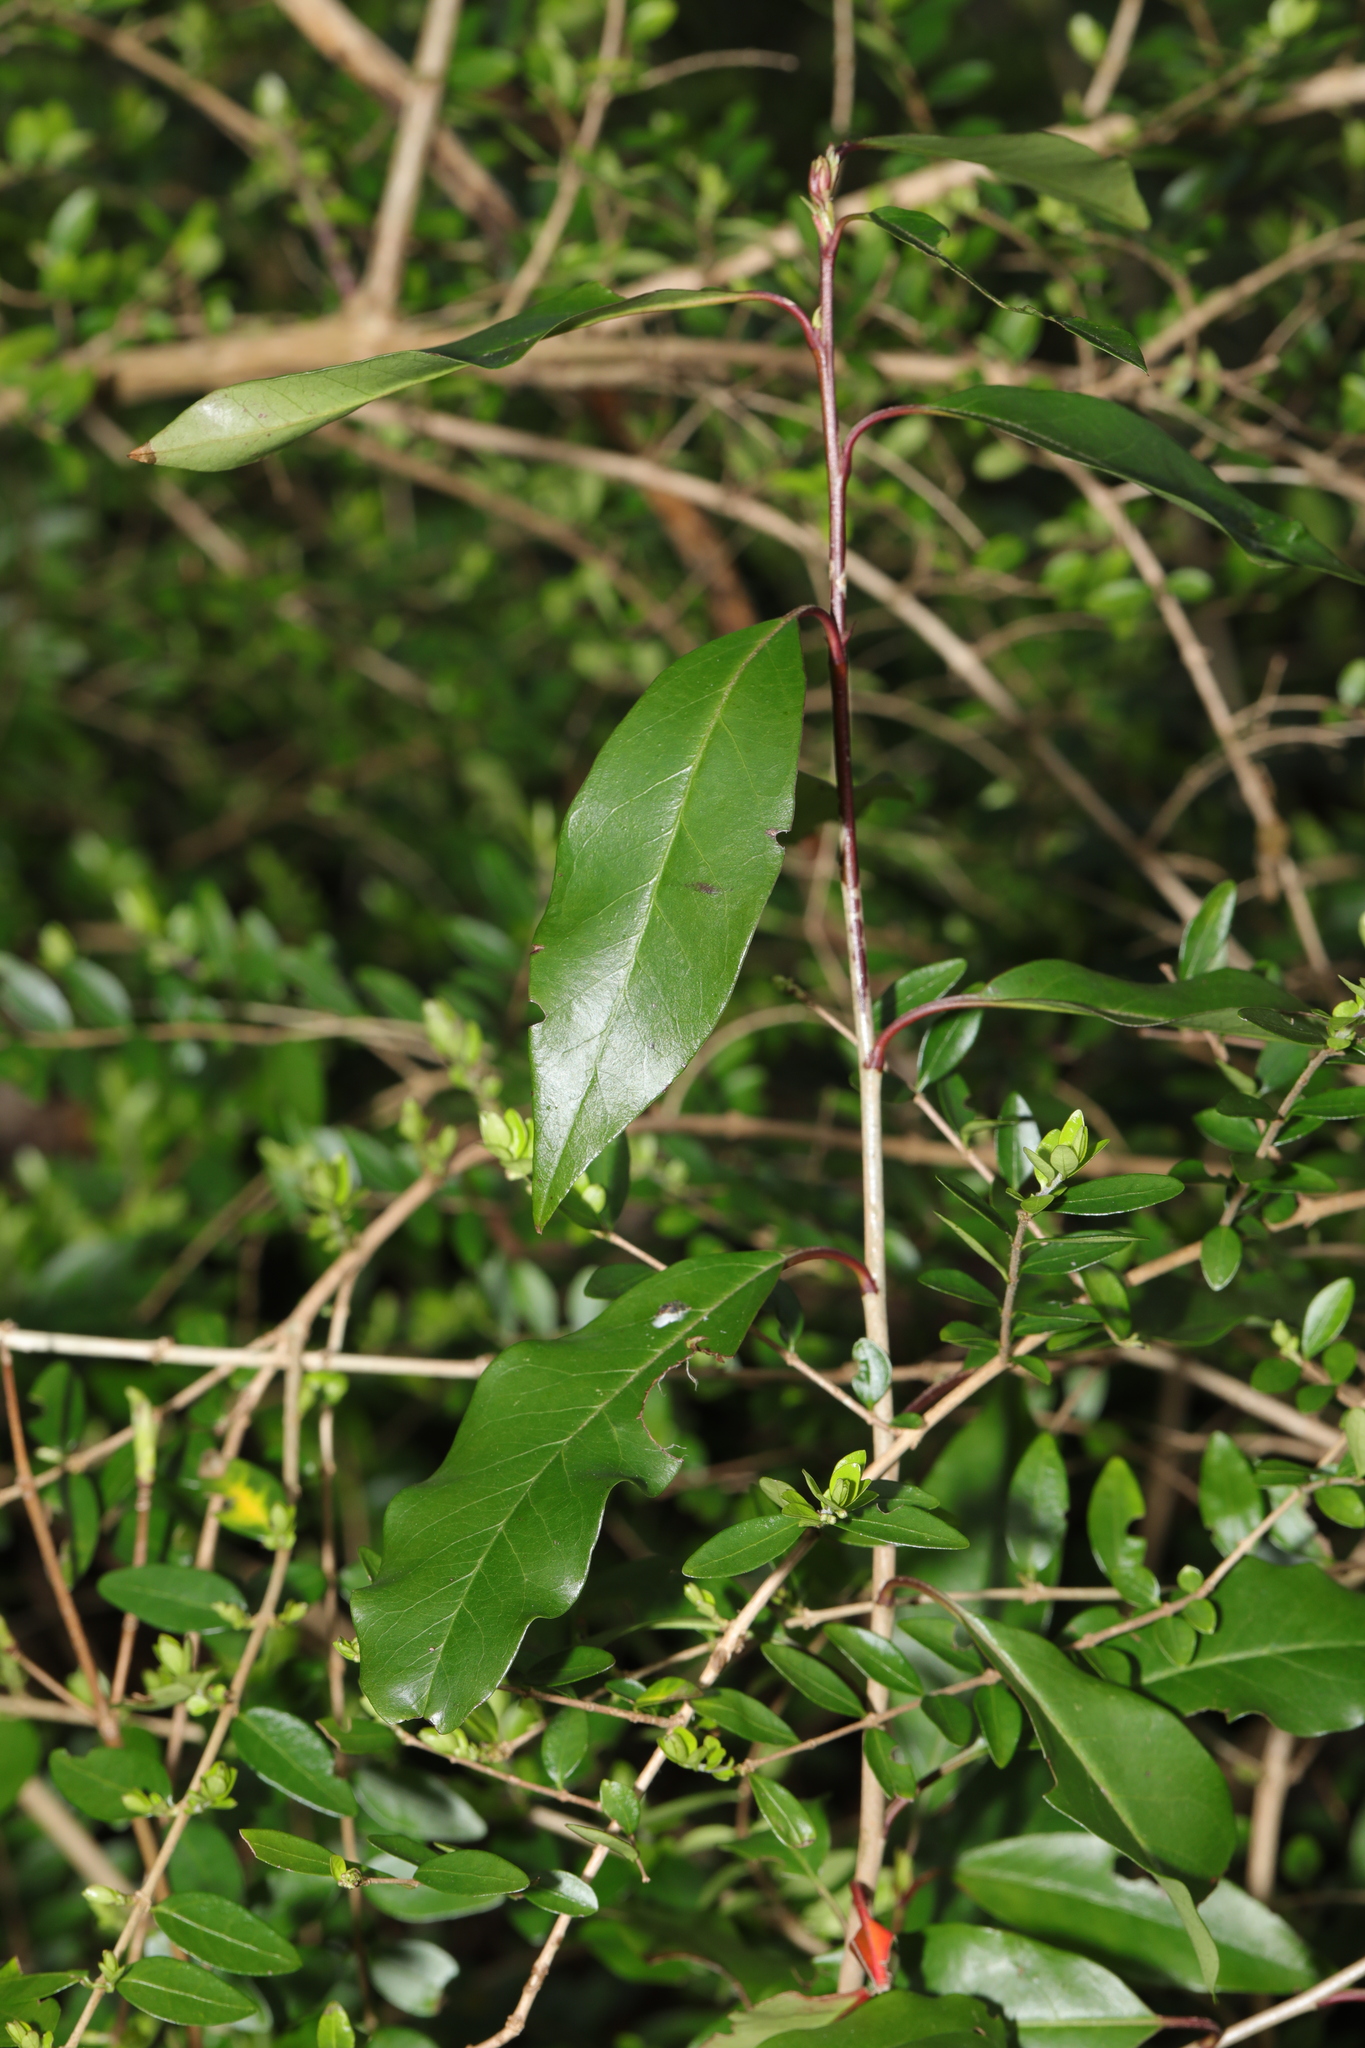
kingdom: Plantae
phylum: Tracheophyta
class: Magnoliopsida
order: Rosales
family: Rosaceae
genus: Prunus
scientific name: Prunus lusitanica
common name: Portugal laurel
